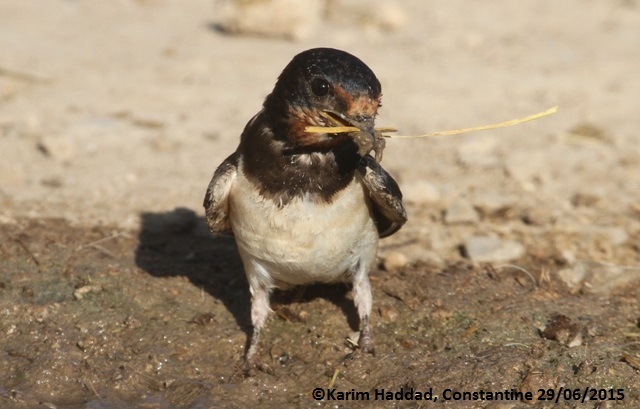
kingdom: Animalia
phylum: Chordata
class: Aves
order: Passeriformes
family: Hirundinidae
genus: Hirundo
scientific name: Hirundo rustica
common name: Barn swallow
